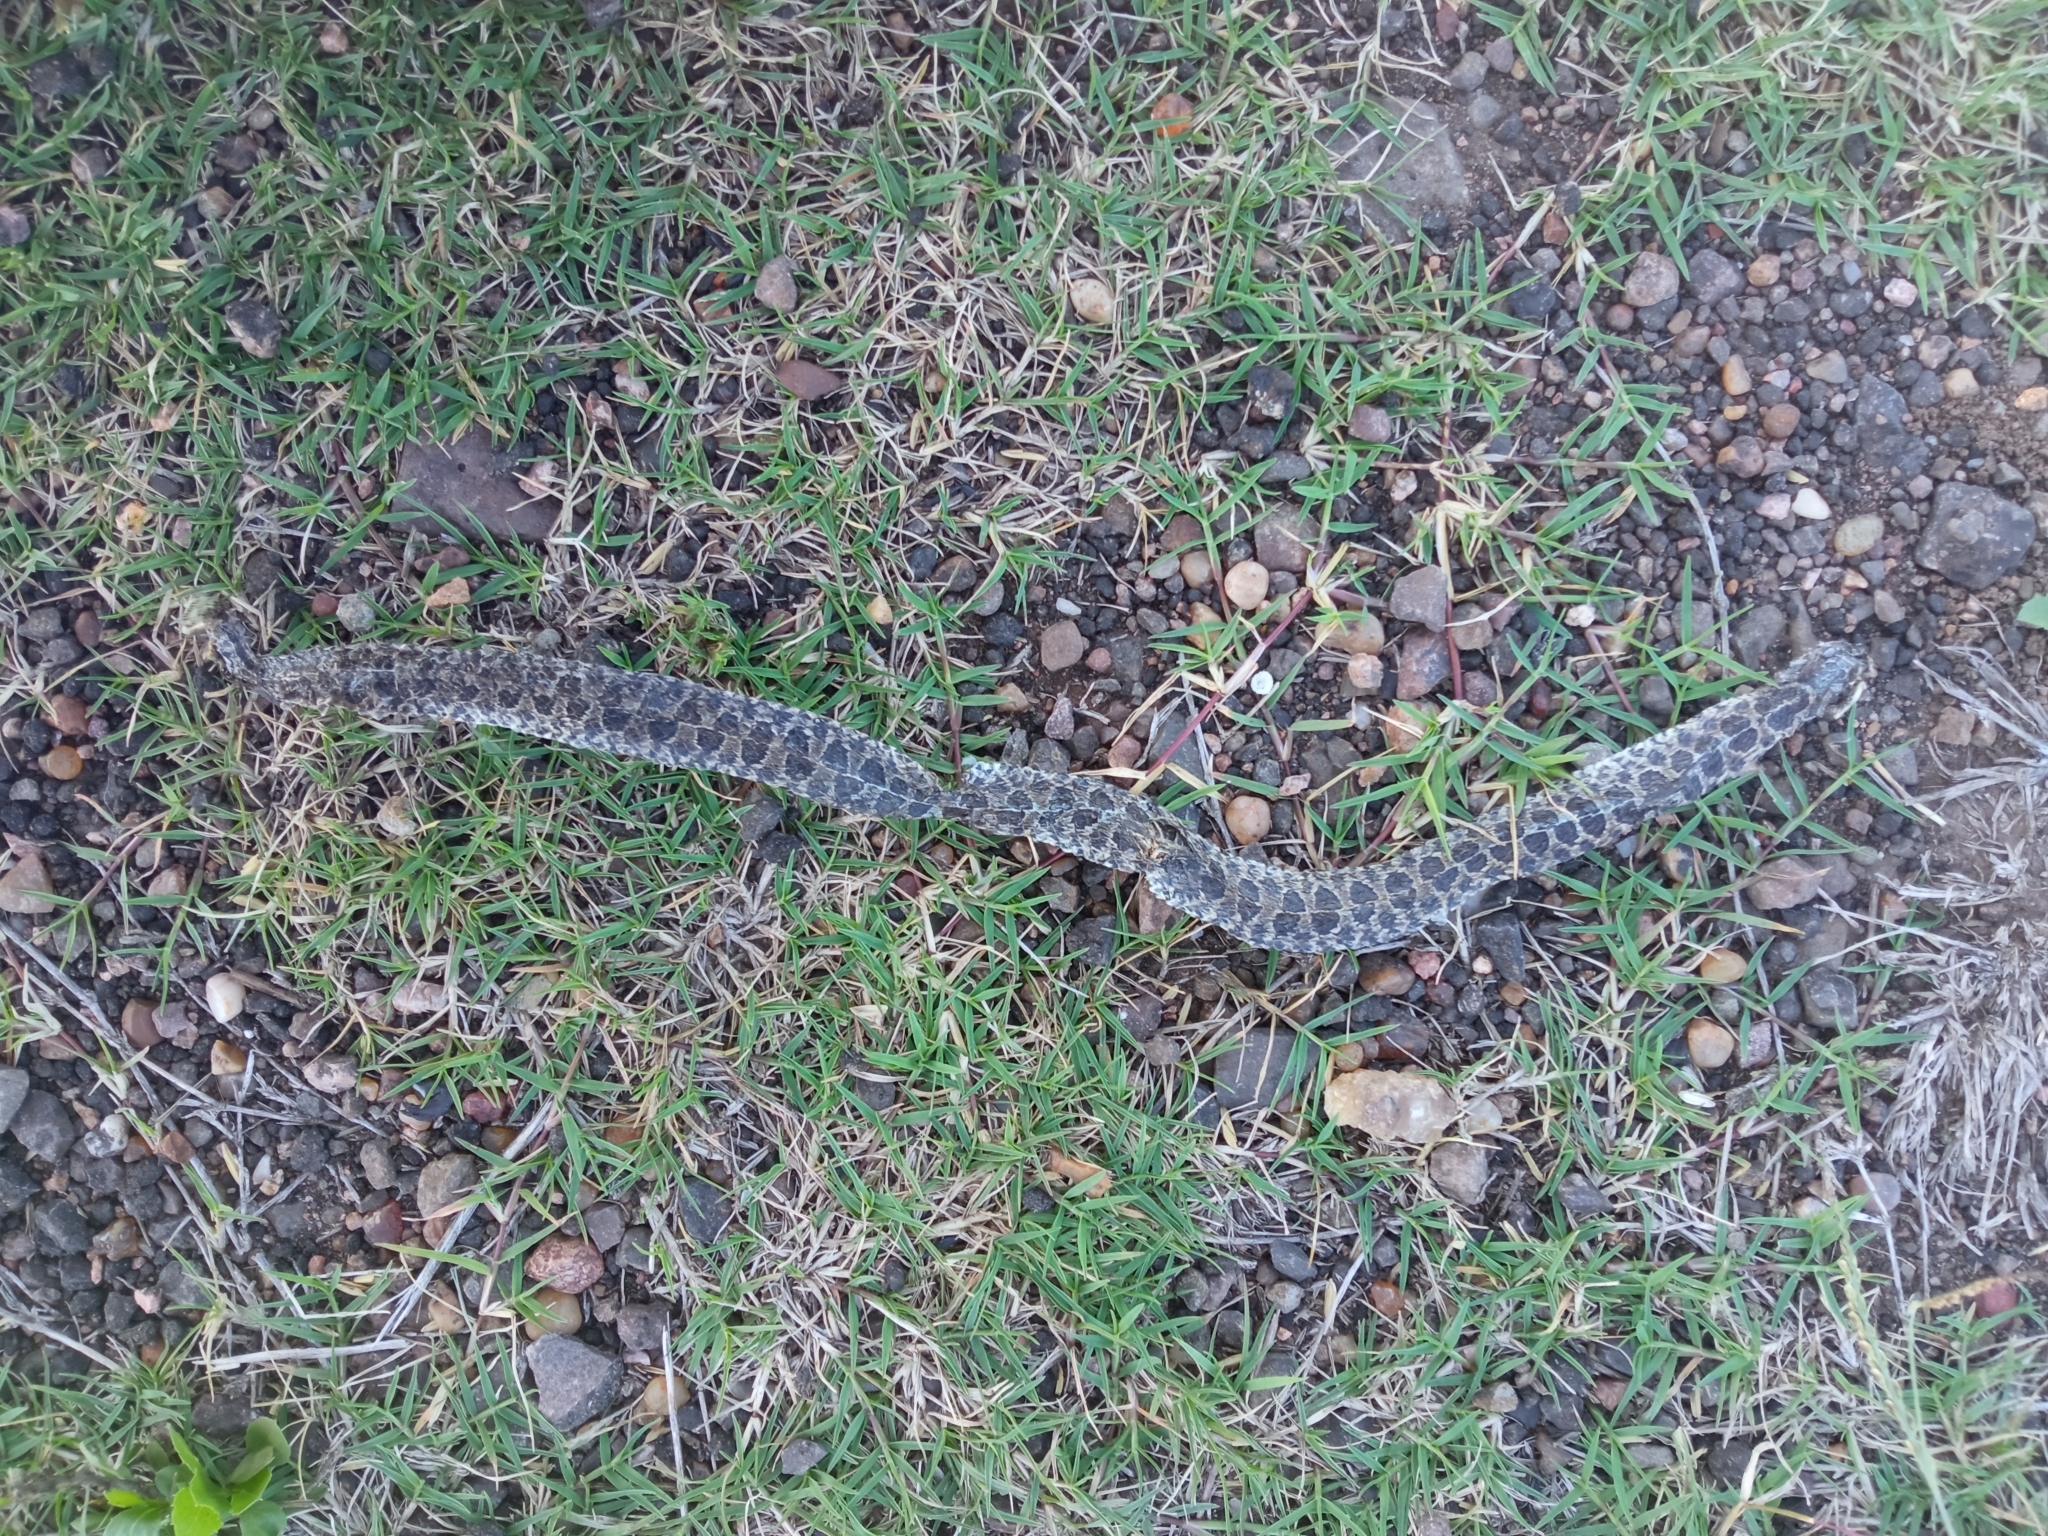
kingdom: Animalia
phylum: Chordata
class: Squamata
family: Colubridae
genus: Tachymenis
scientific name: Tachymenis
